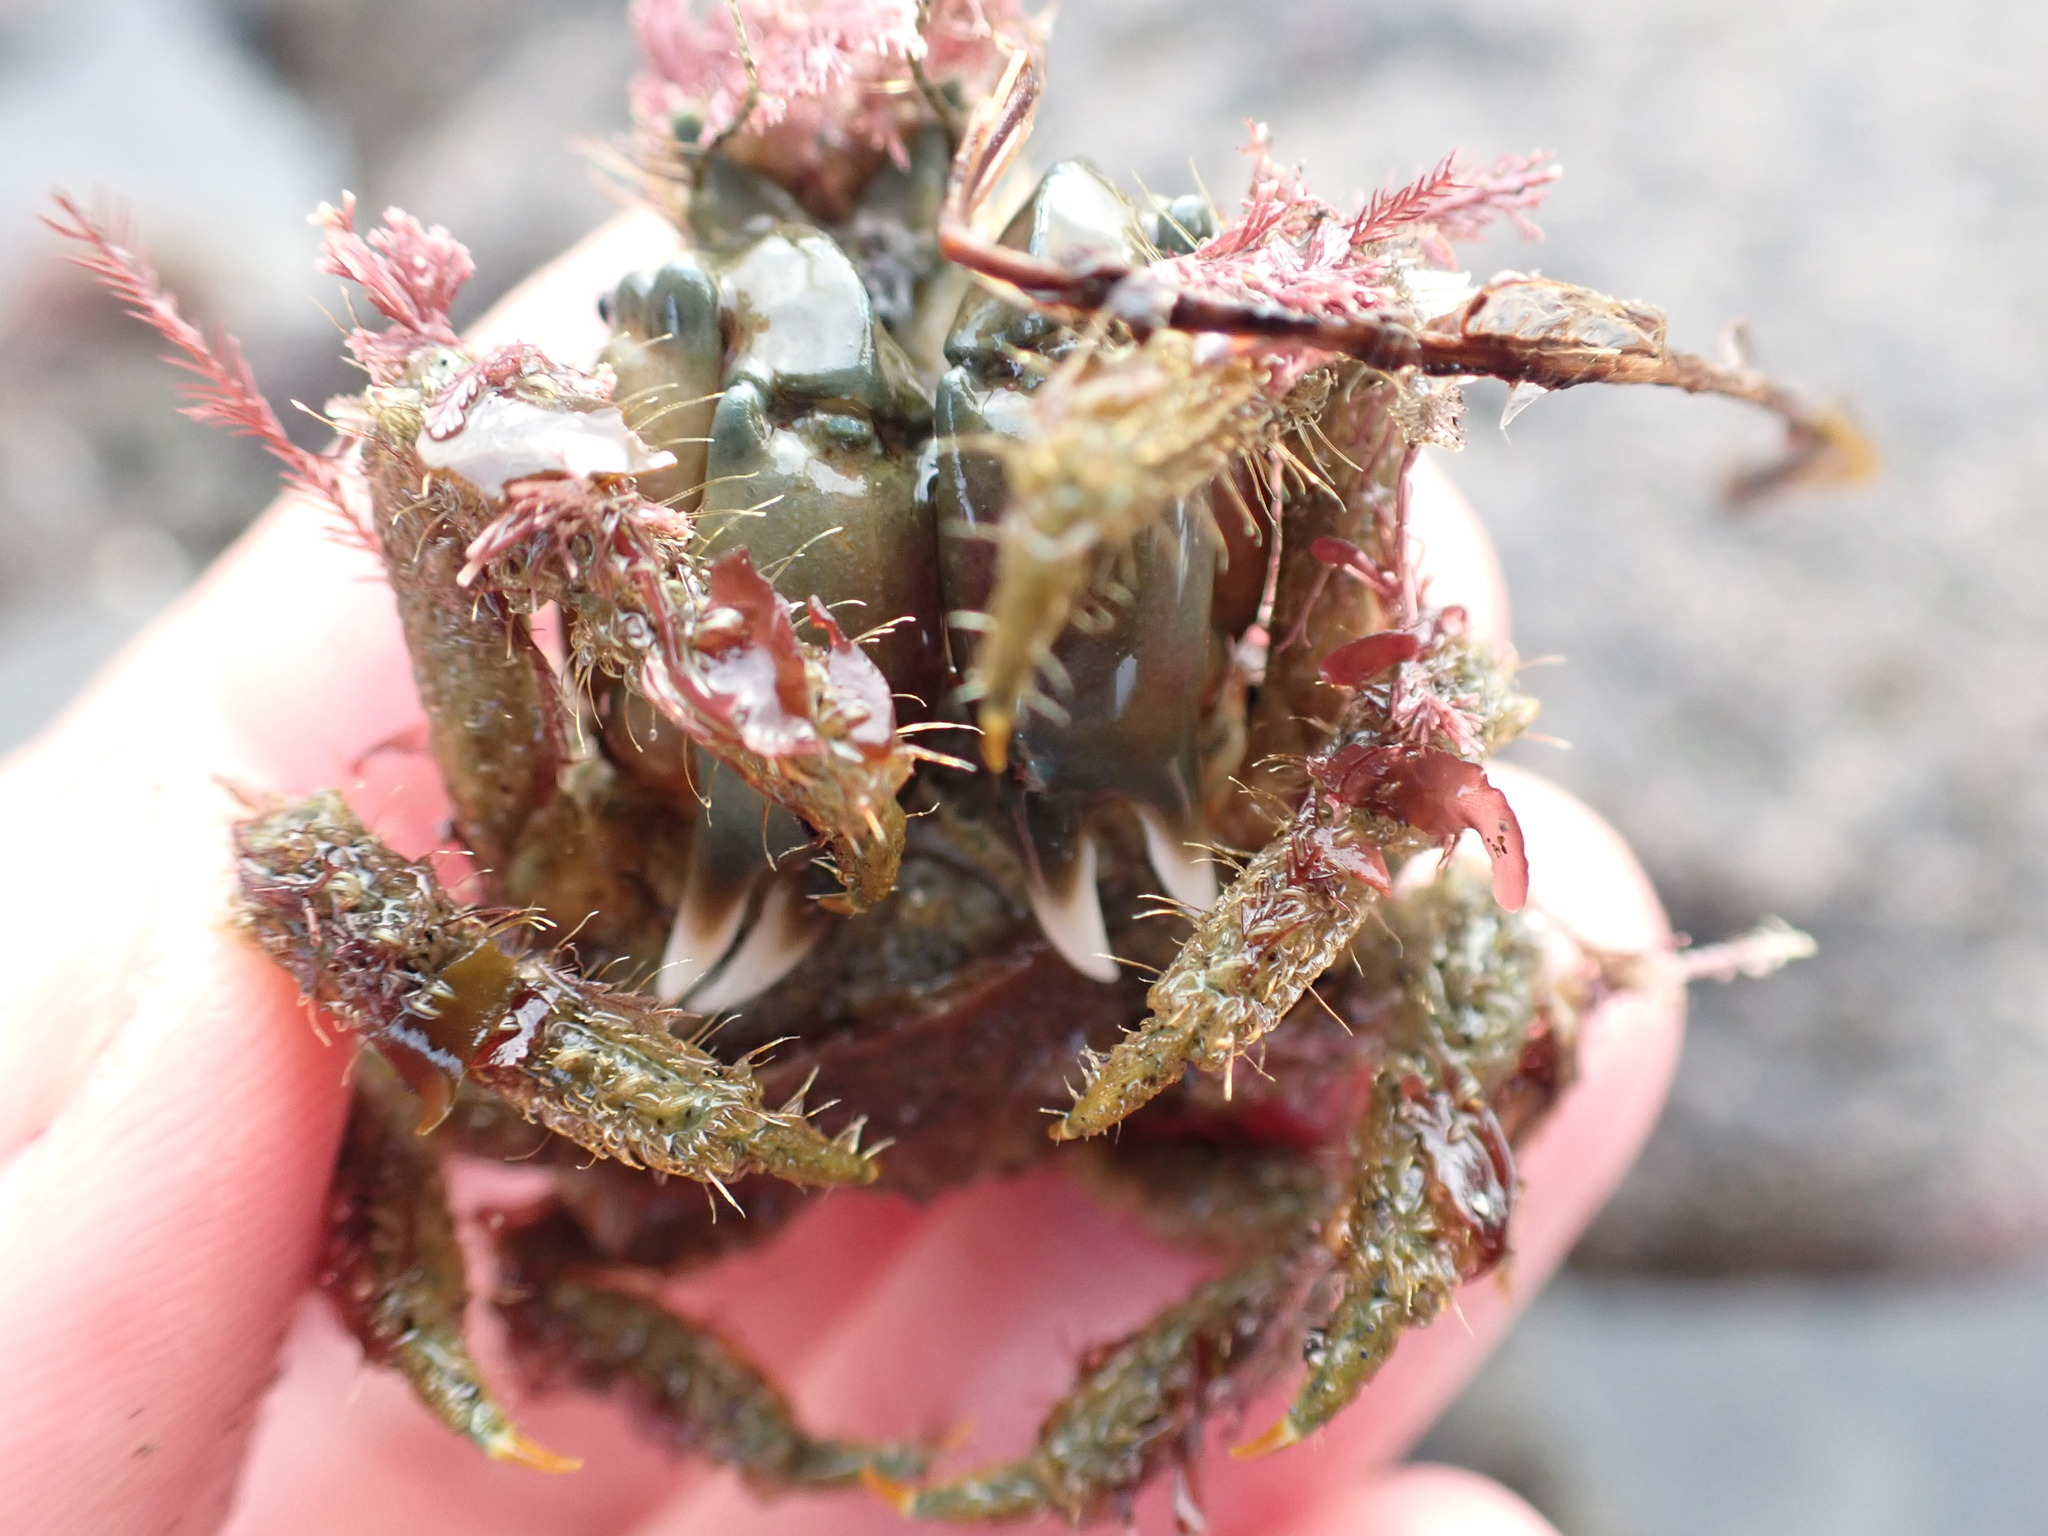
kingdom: Animalia
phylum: Arthropoda
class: Malacostraca
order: Decapoda
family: Majidae
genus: Notomithrax
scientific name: Notomithrax peronii
